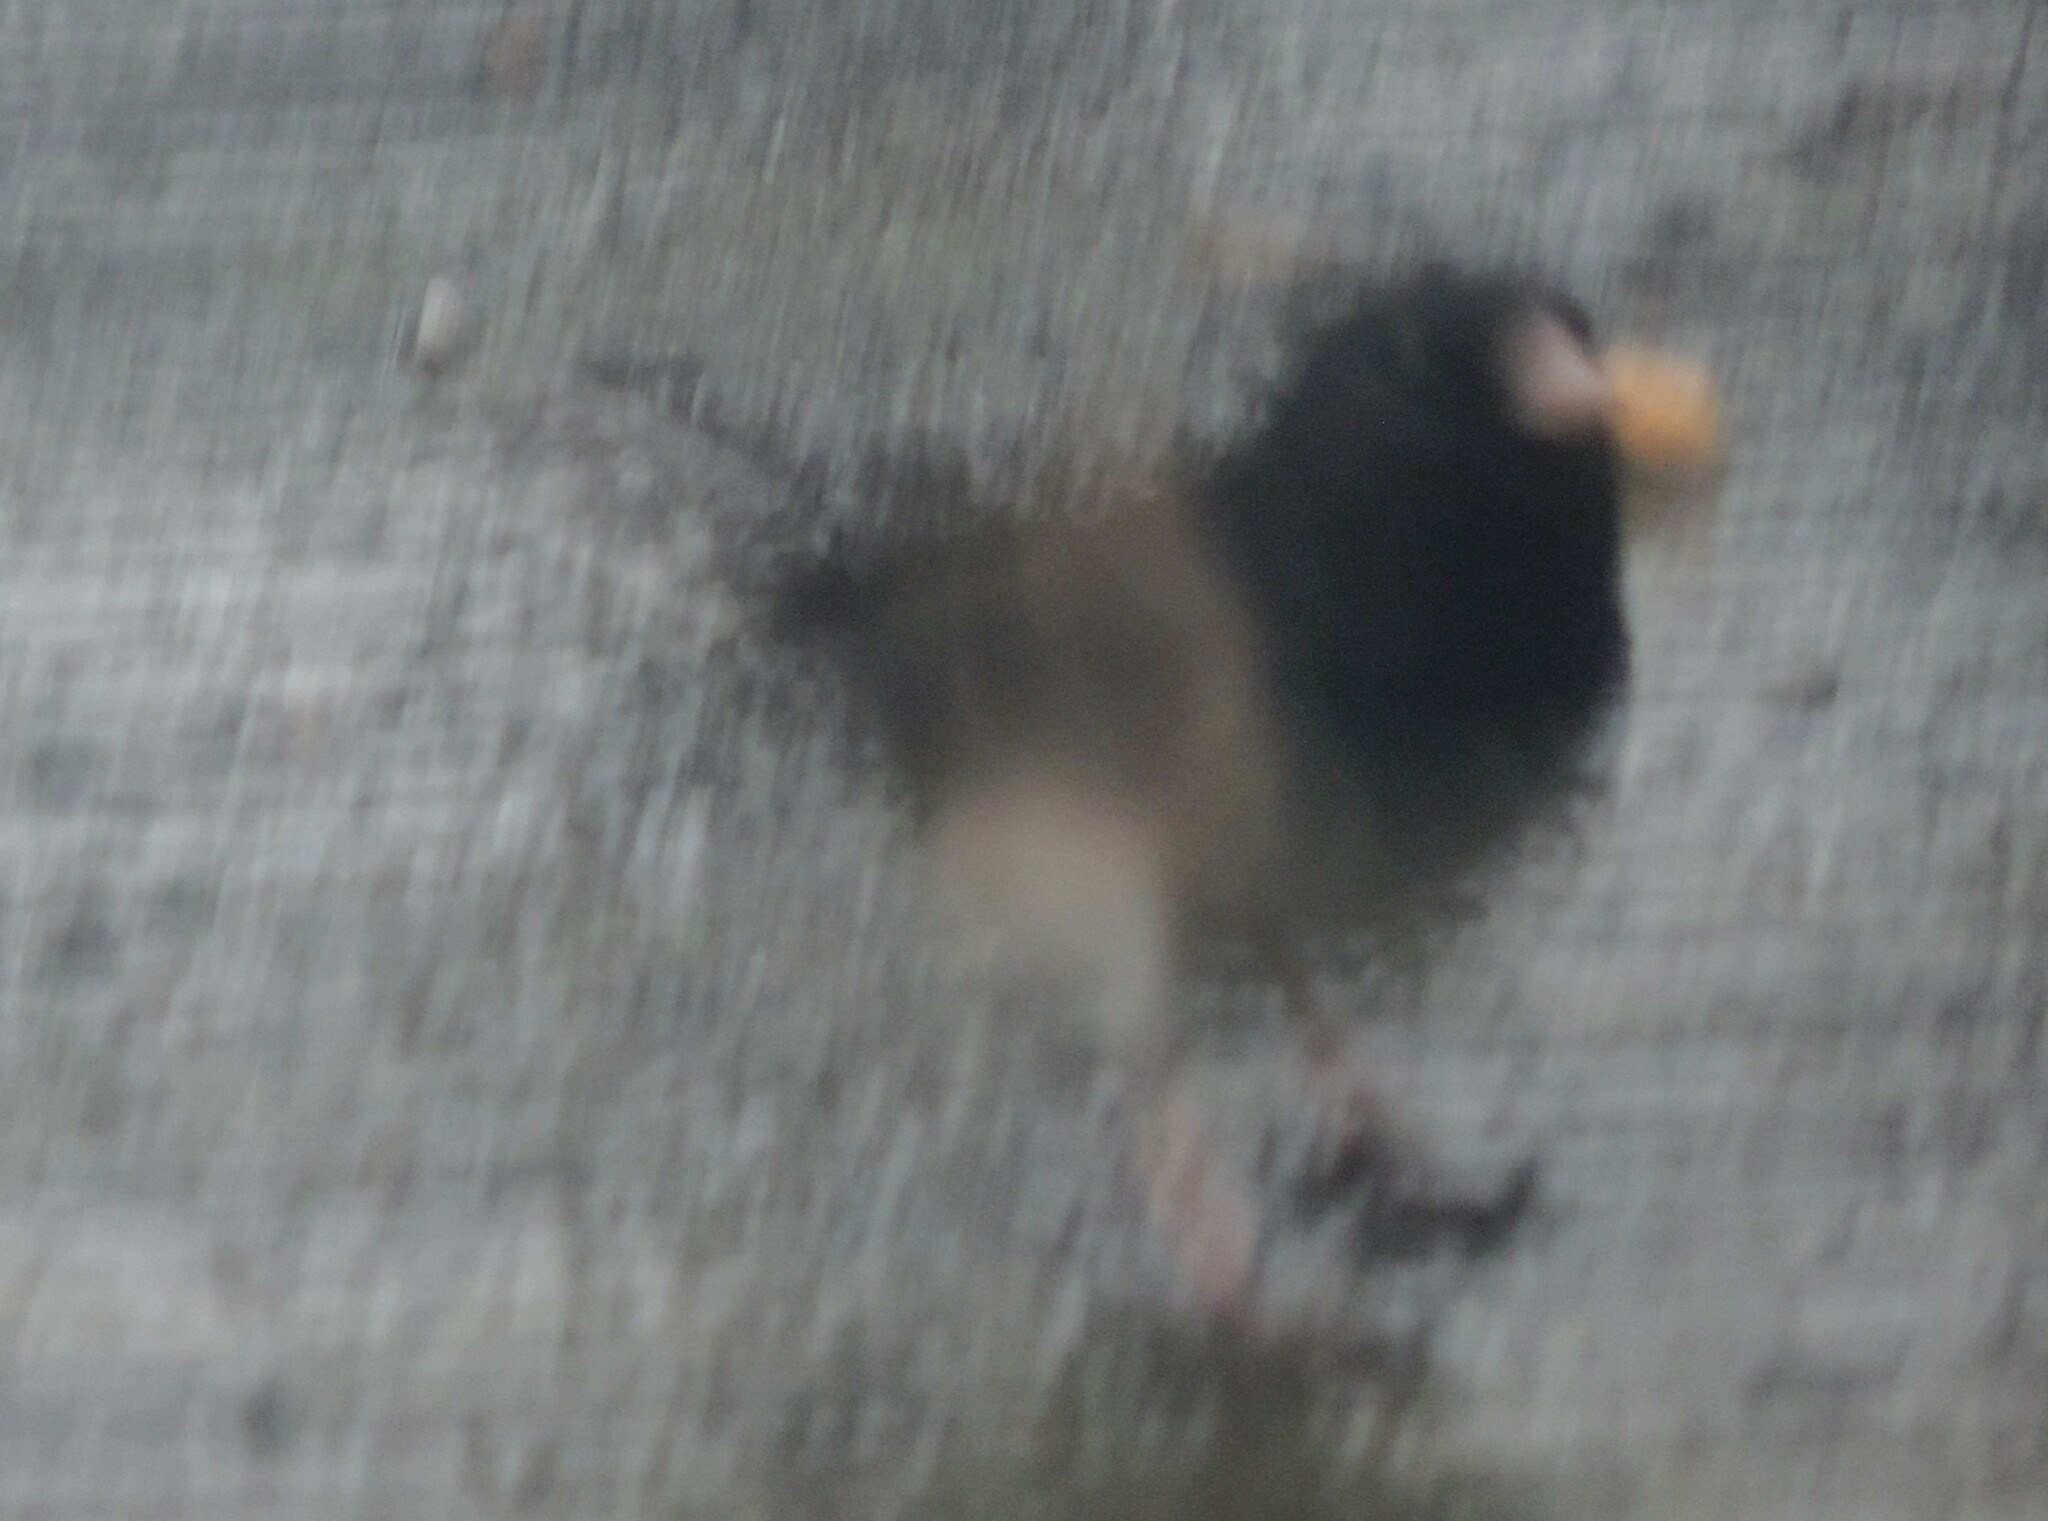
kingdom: Animalia
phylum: Chordata
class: Aves
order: Passeriformes
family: Passerellidae
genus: Junco
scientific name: Junco hyemalis
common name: Dark-eyed junco
